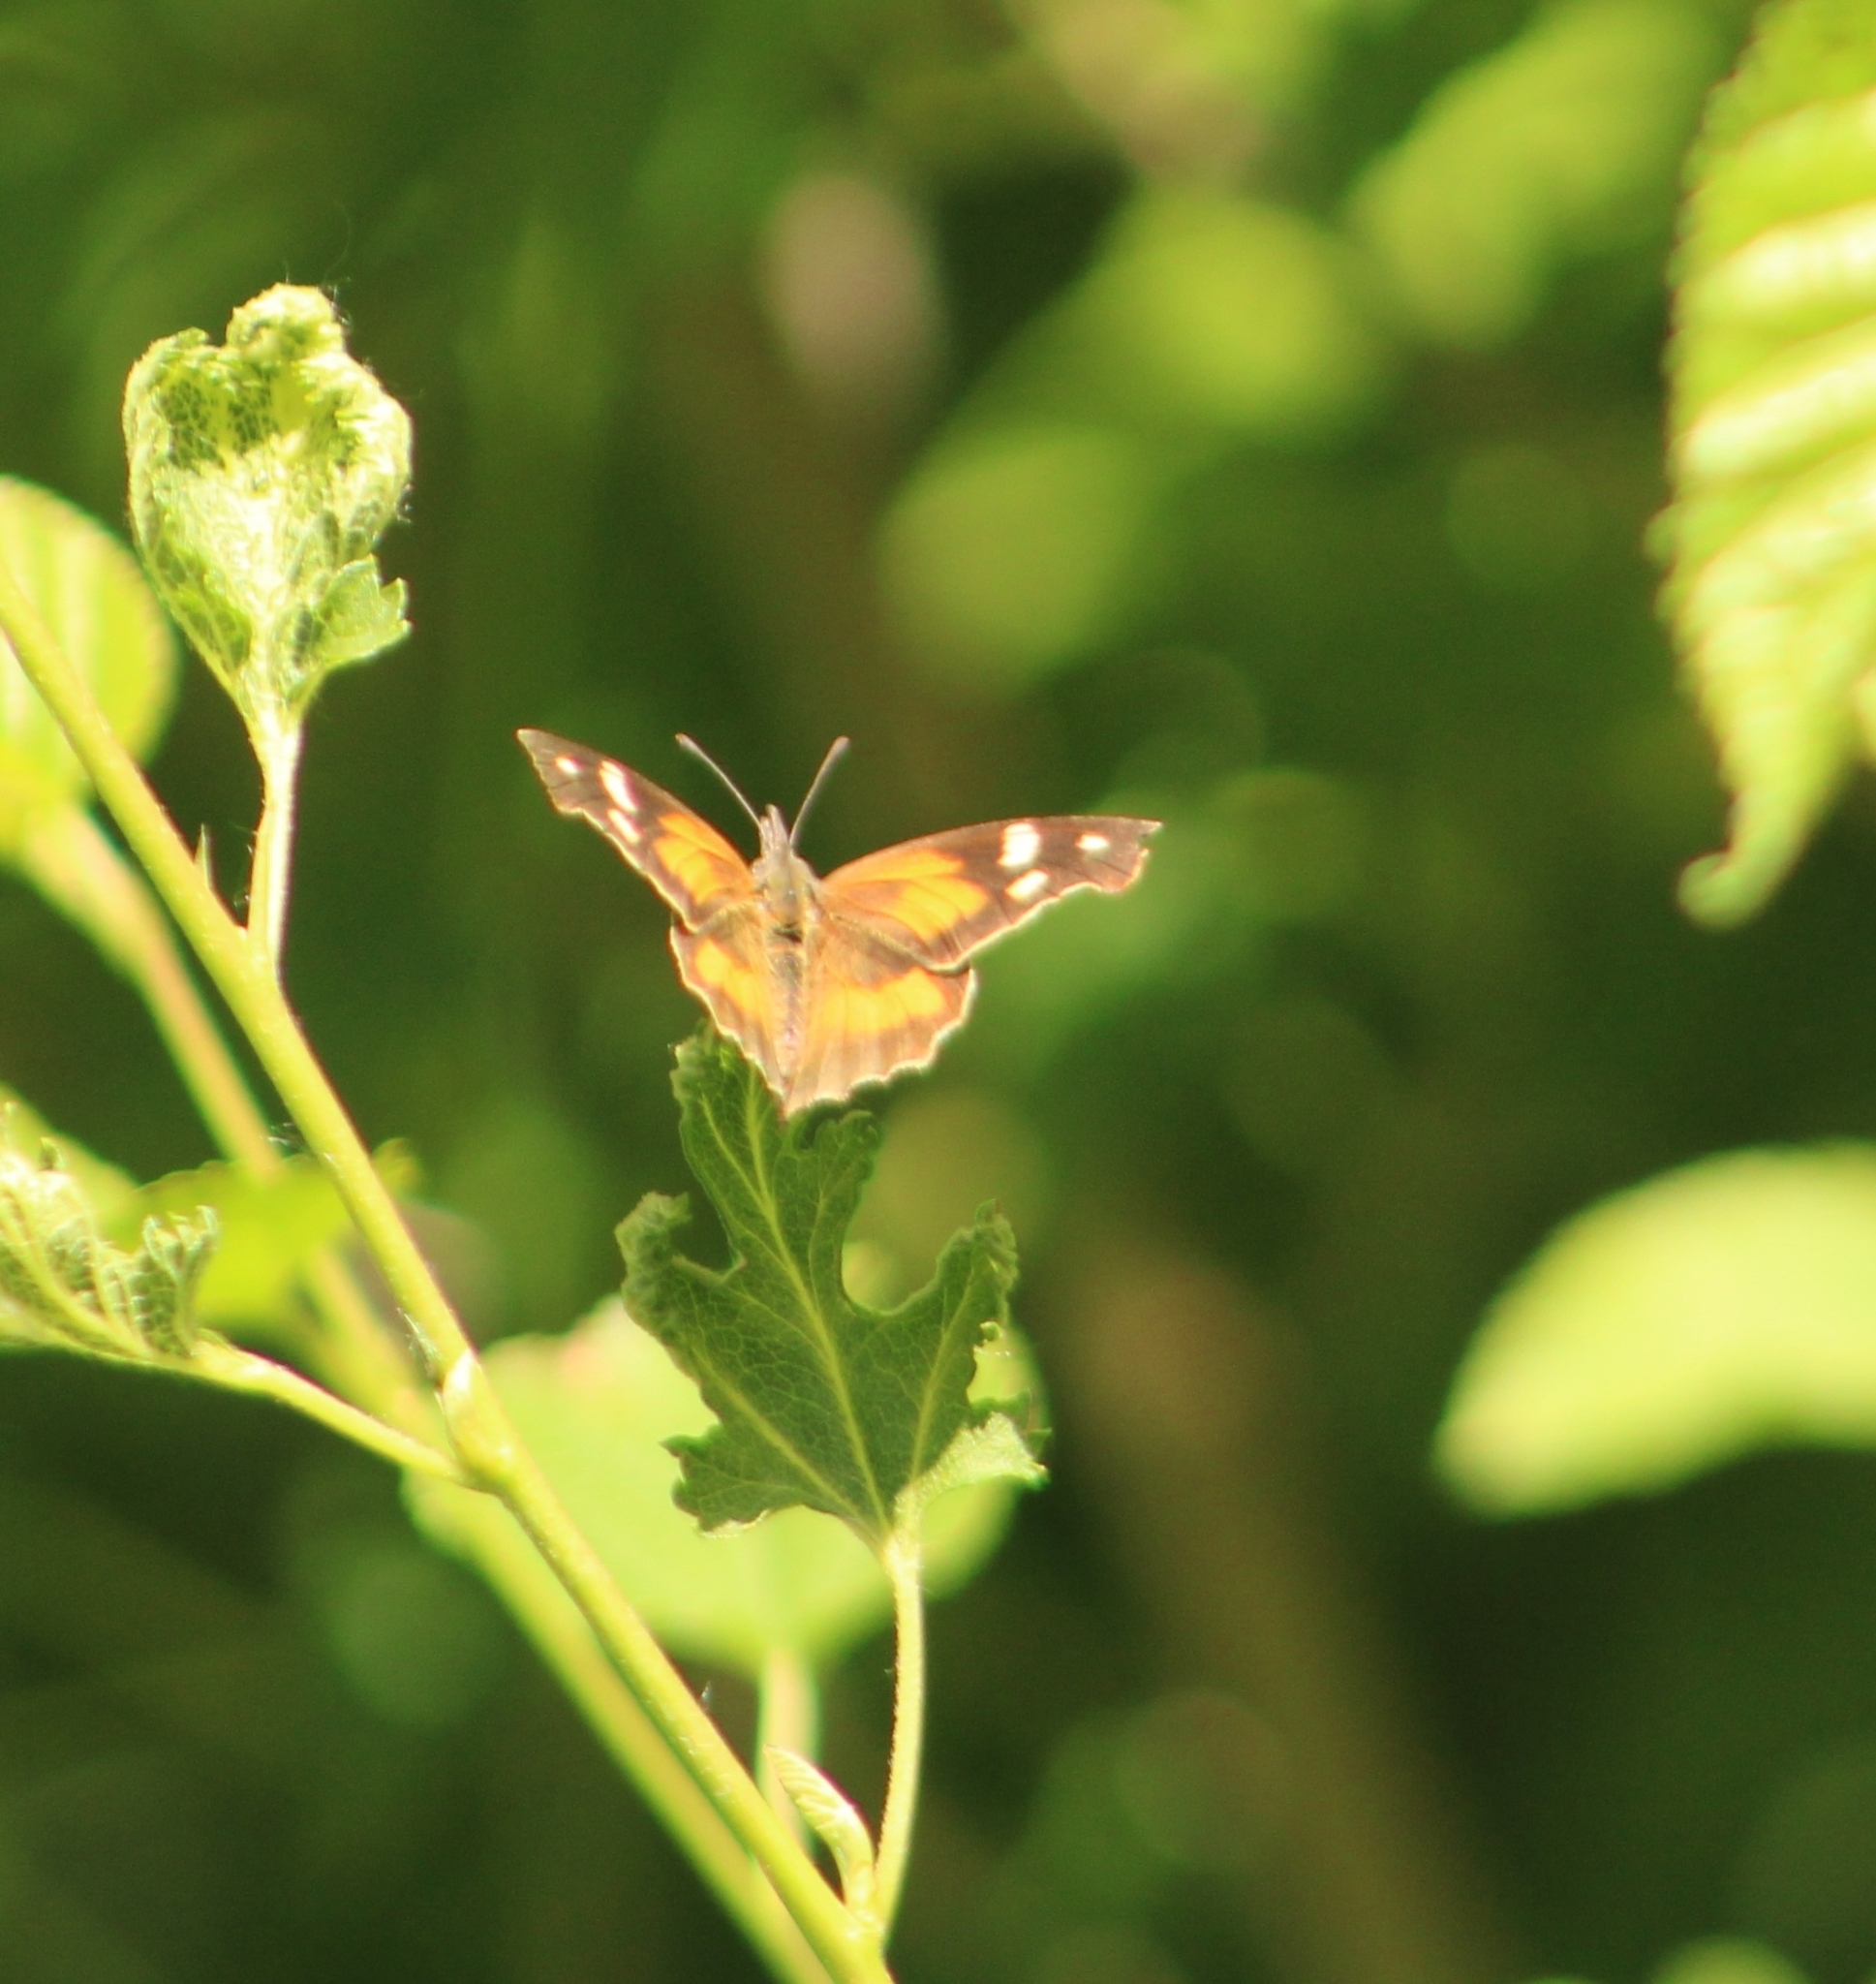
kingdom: Animalia
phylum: Arthropoda
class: Insecta
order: Lepidoptera
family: Nymphalidae
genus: Libytheana
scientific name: Libytheana carinenta
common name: American snout
